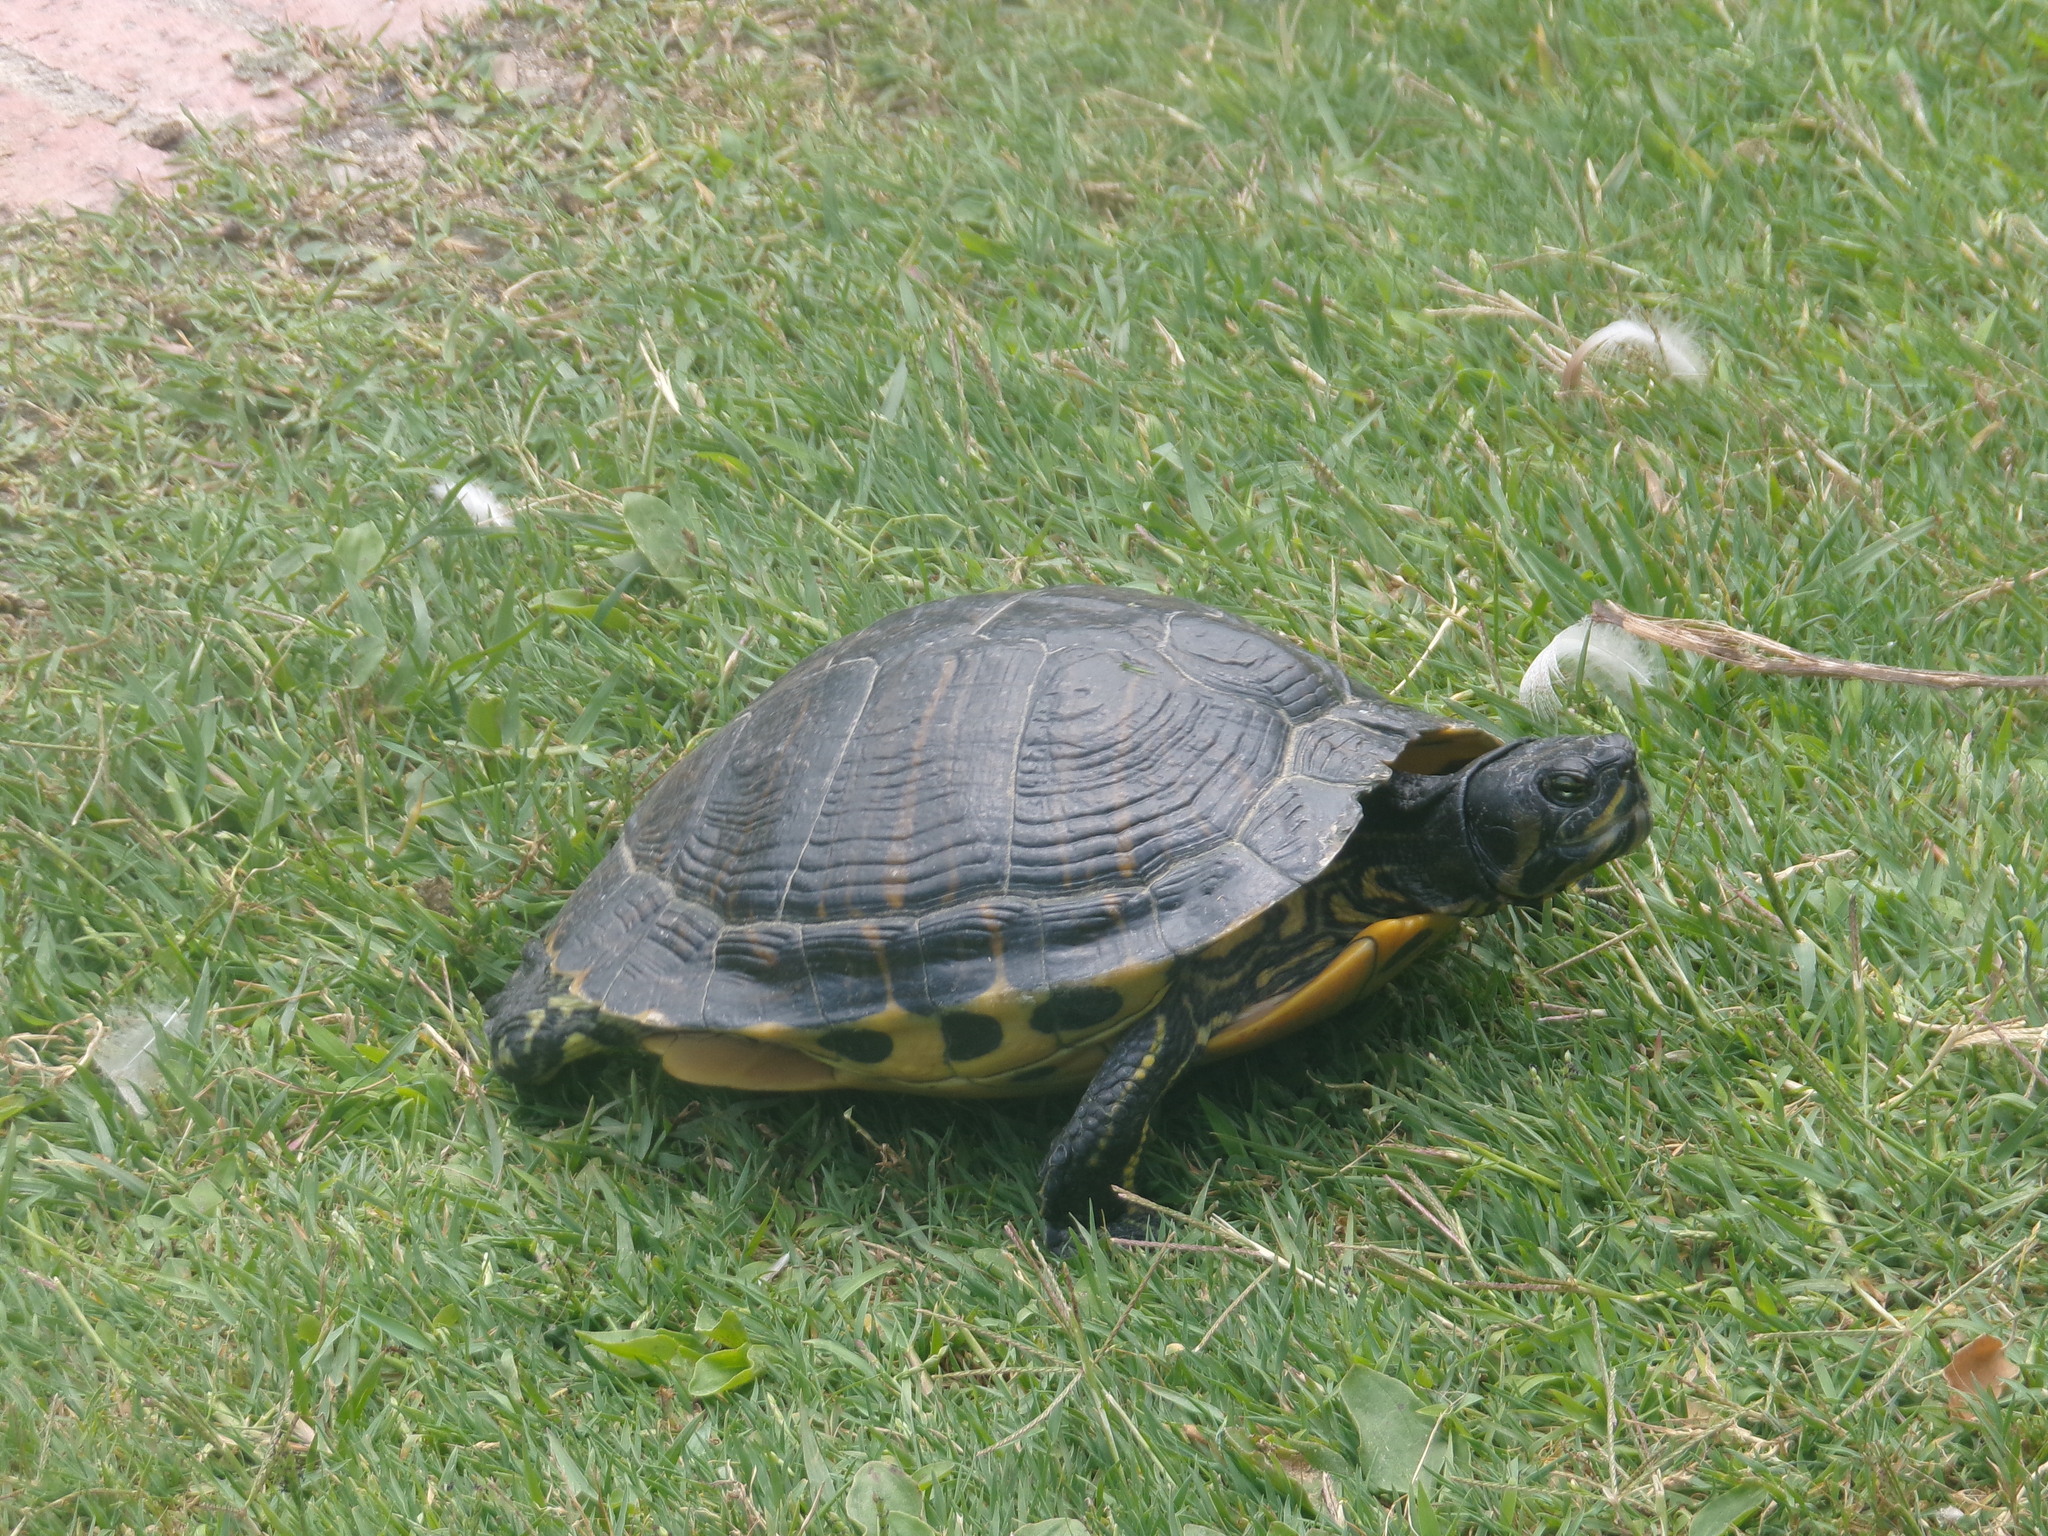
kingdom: Animalia
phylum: Chordata
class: Testudines
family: Emydidae
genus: Trachemys
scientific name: Trachemys scripta
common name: Slider
